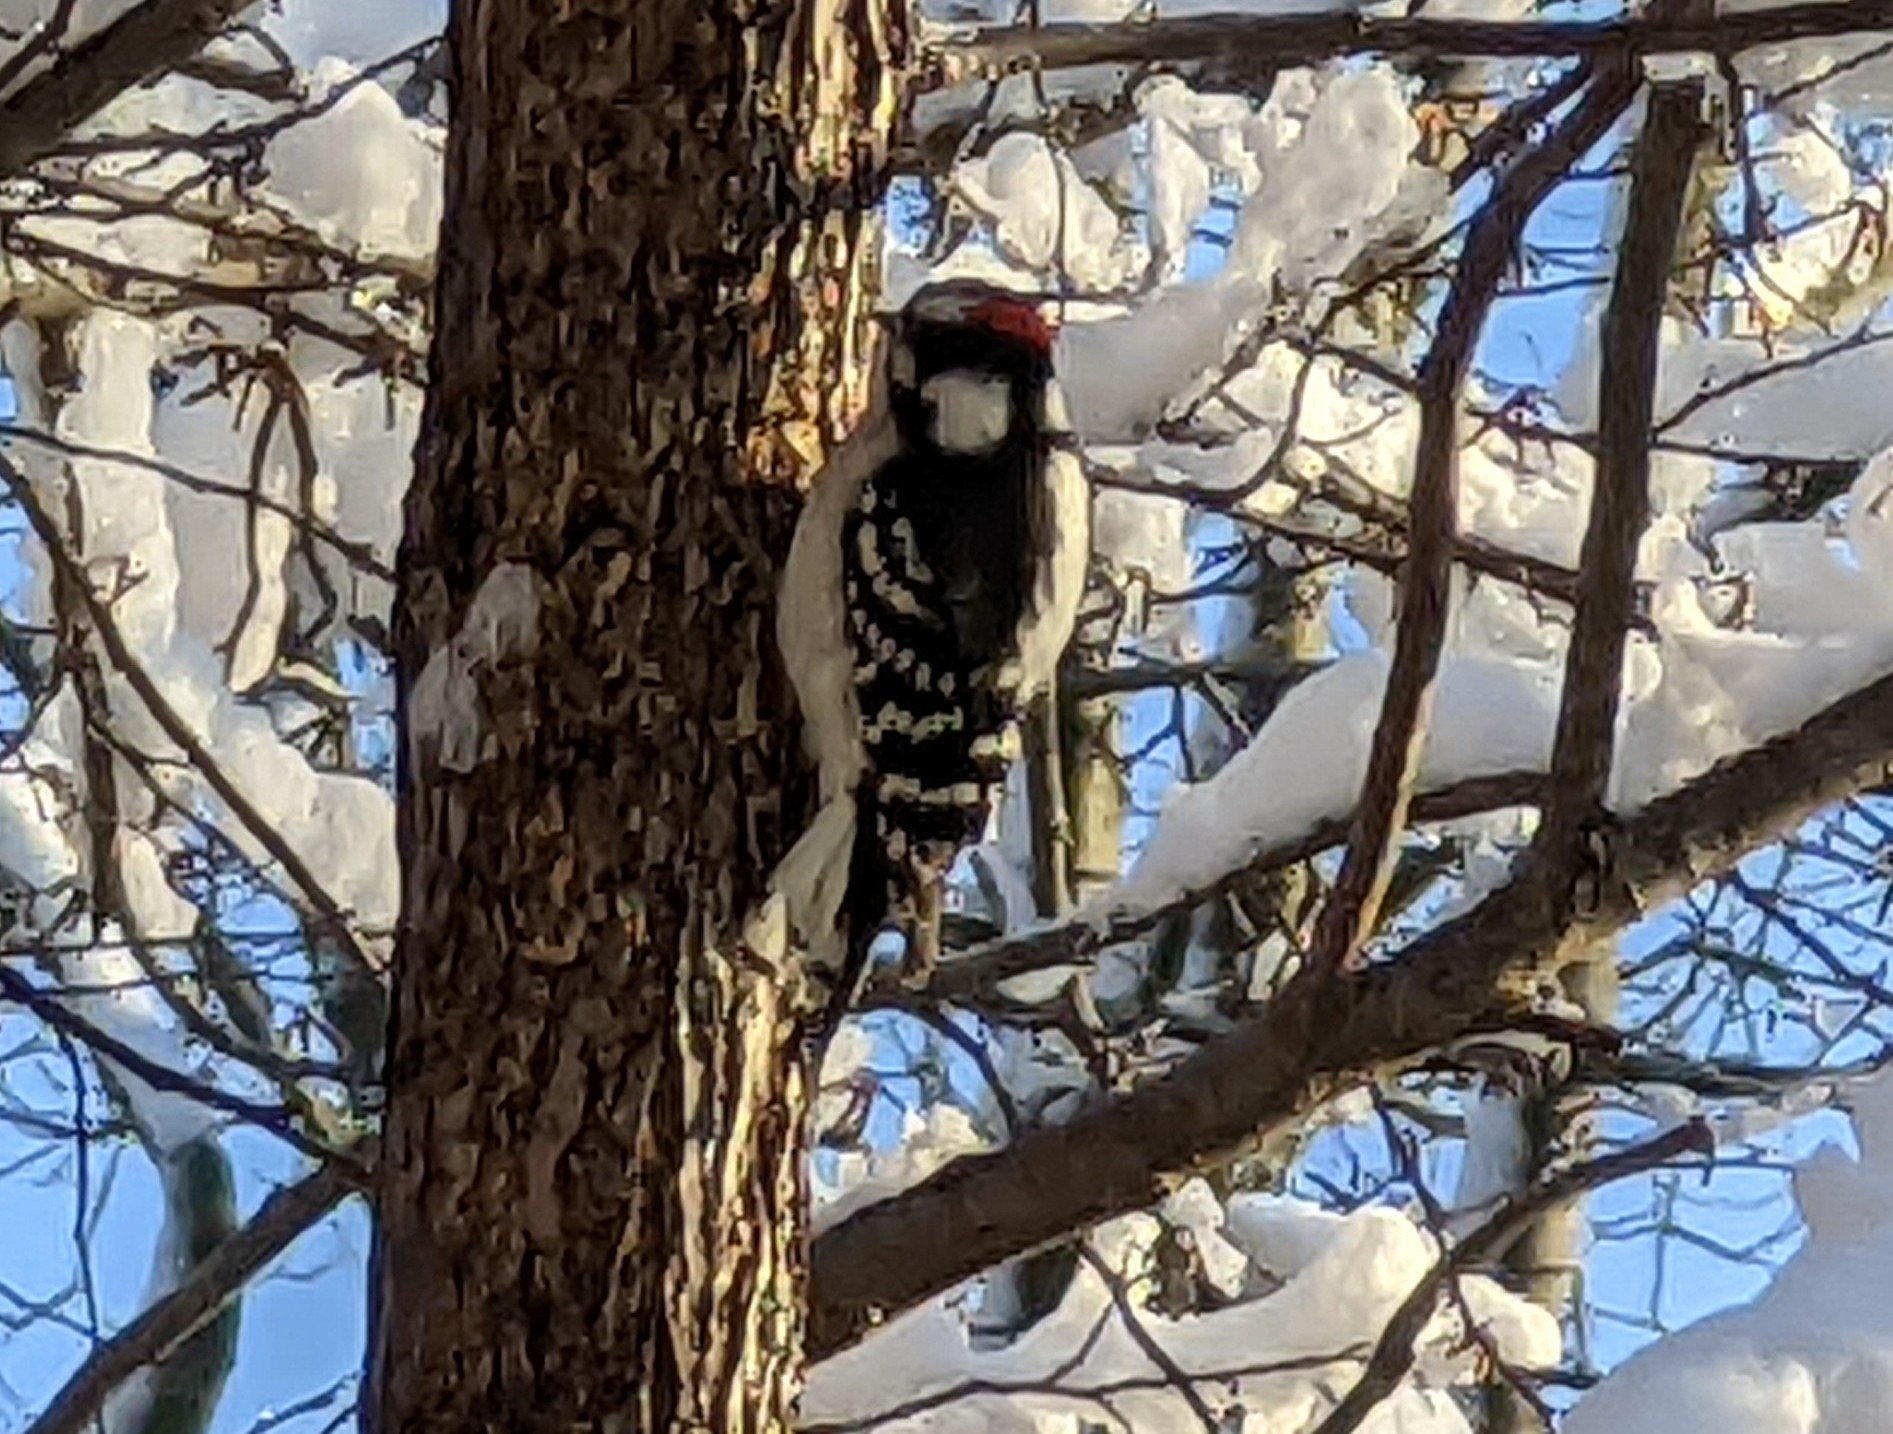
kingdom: Animalia
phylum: Chordata
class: Aves
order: Piciformes
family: Picidae
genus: Dryobates
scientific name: Dryobates pubescens
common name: Downy woodpecker
